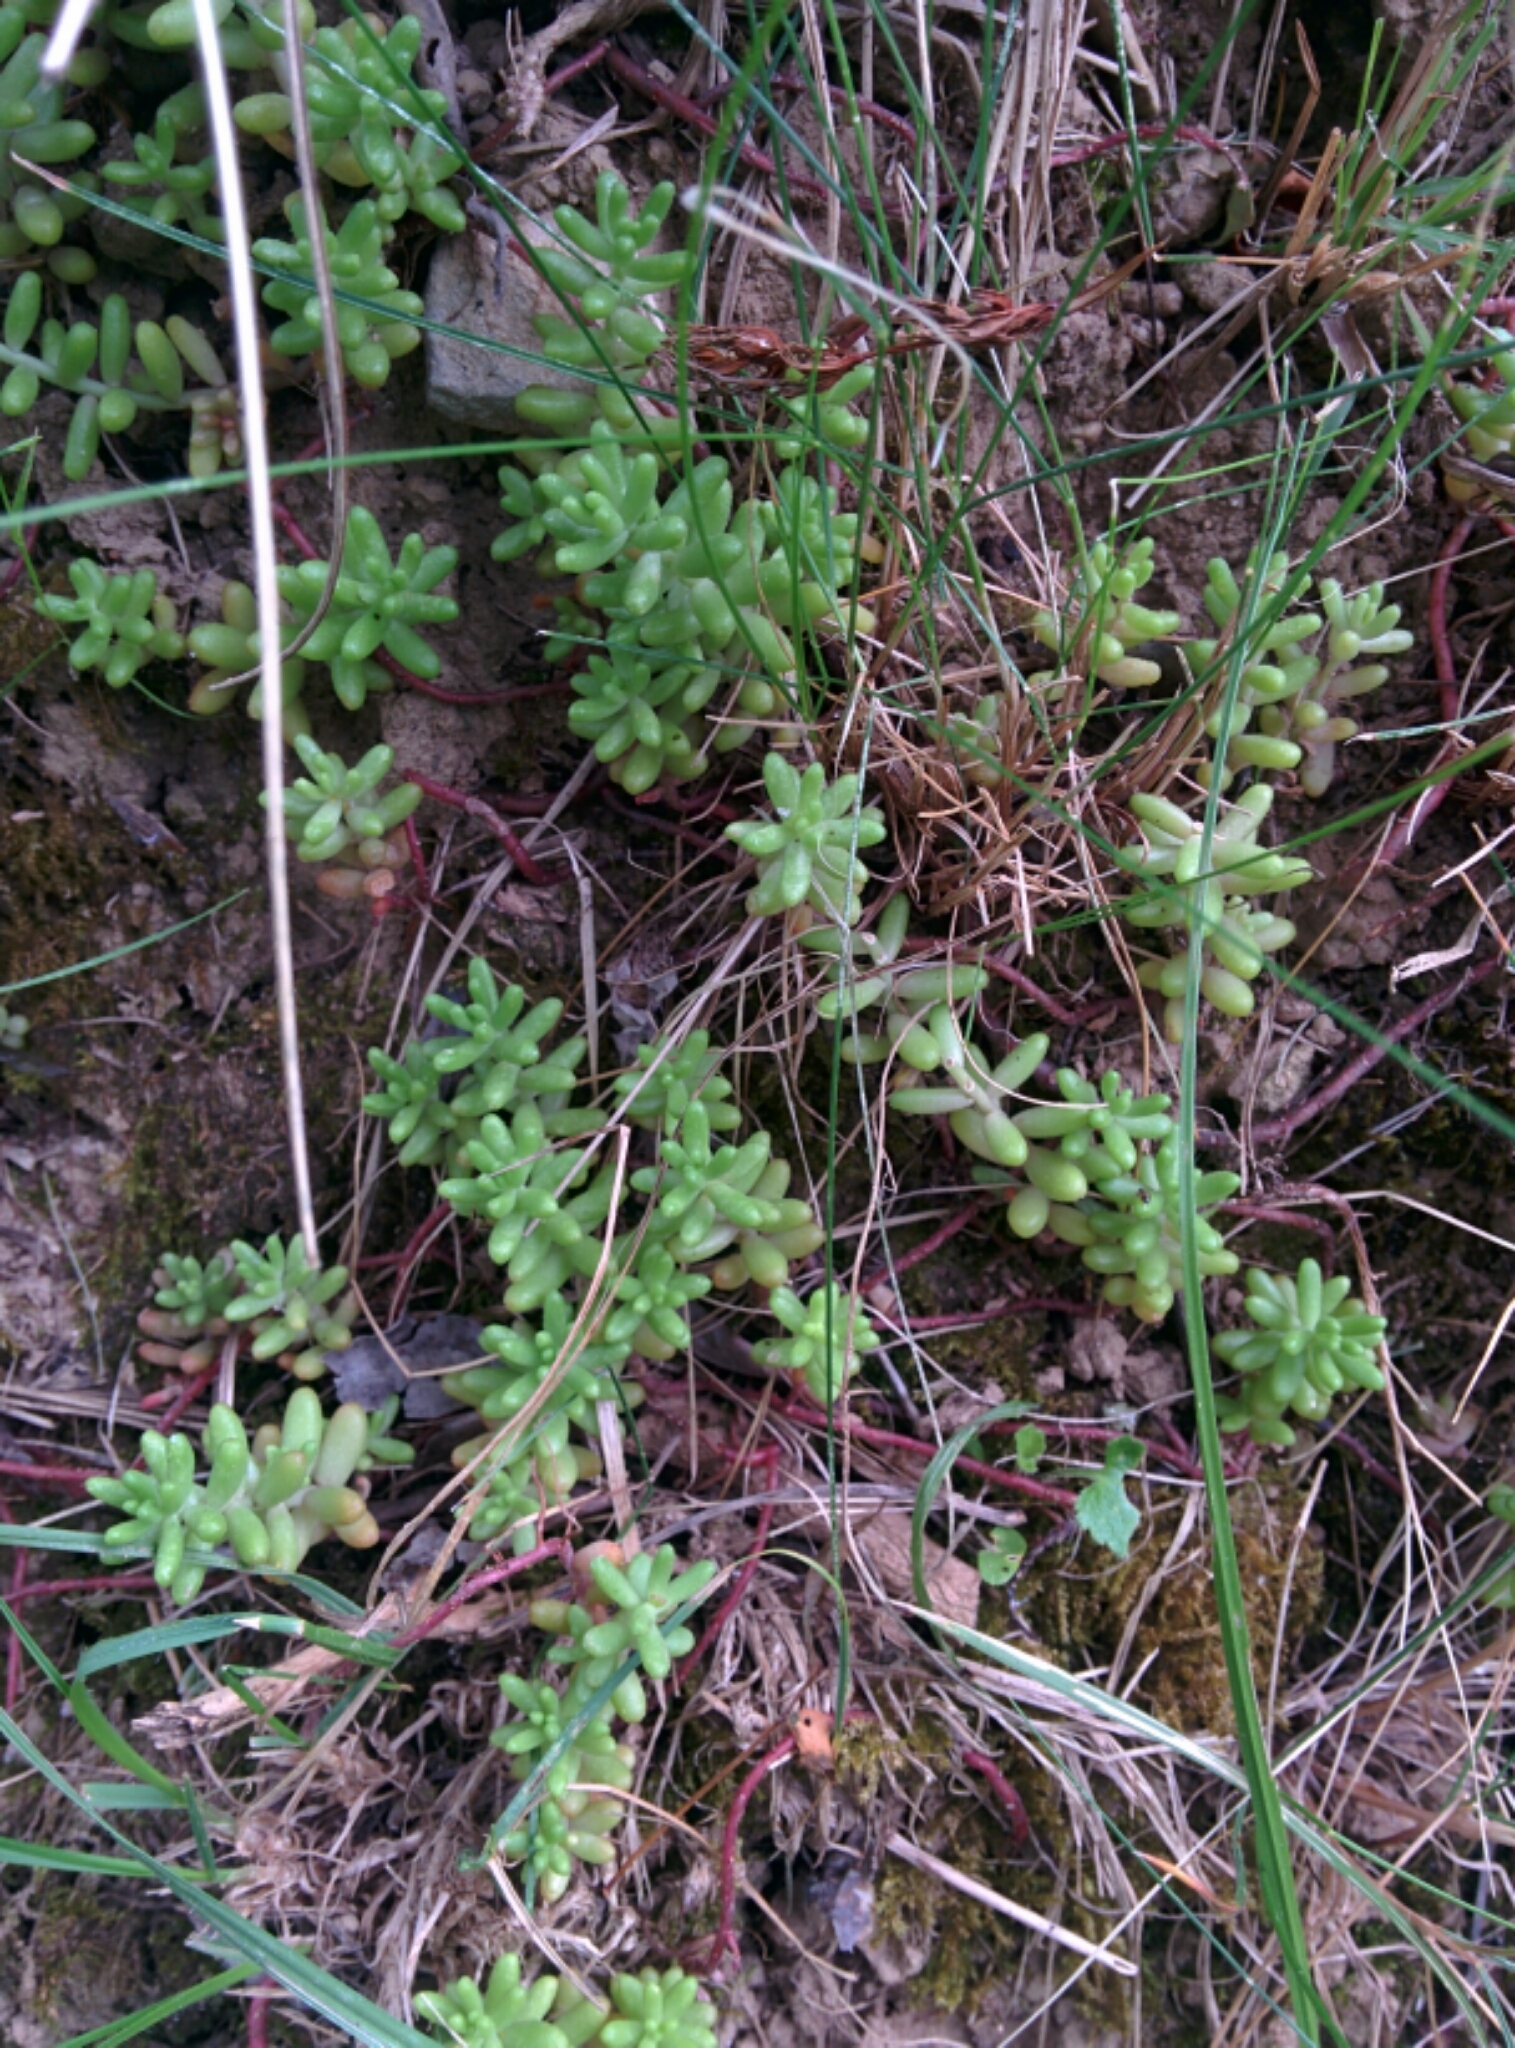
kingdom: Plantae
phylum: Tracheophyta
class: Magnoliopsida
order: Saxifragales
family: Crassulaceae
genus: Sedum
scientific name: Sedum album
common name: White stonecrop
